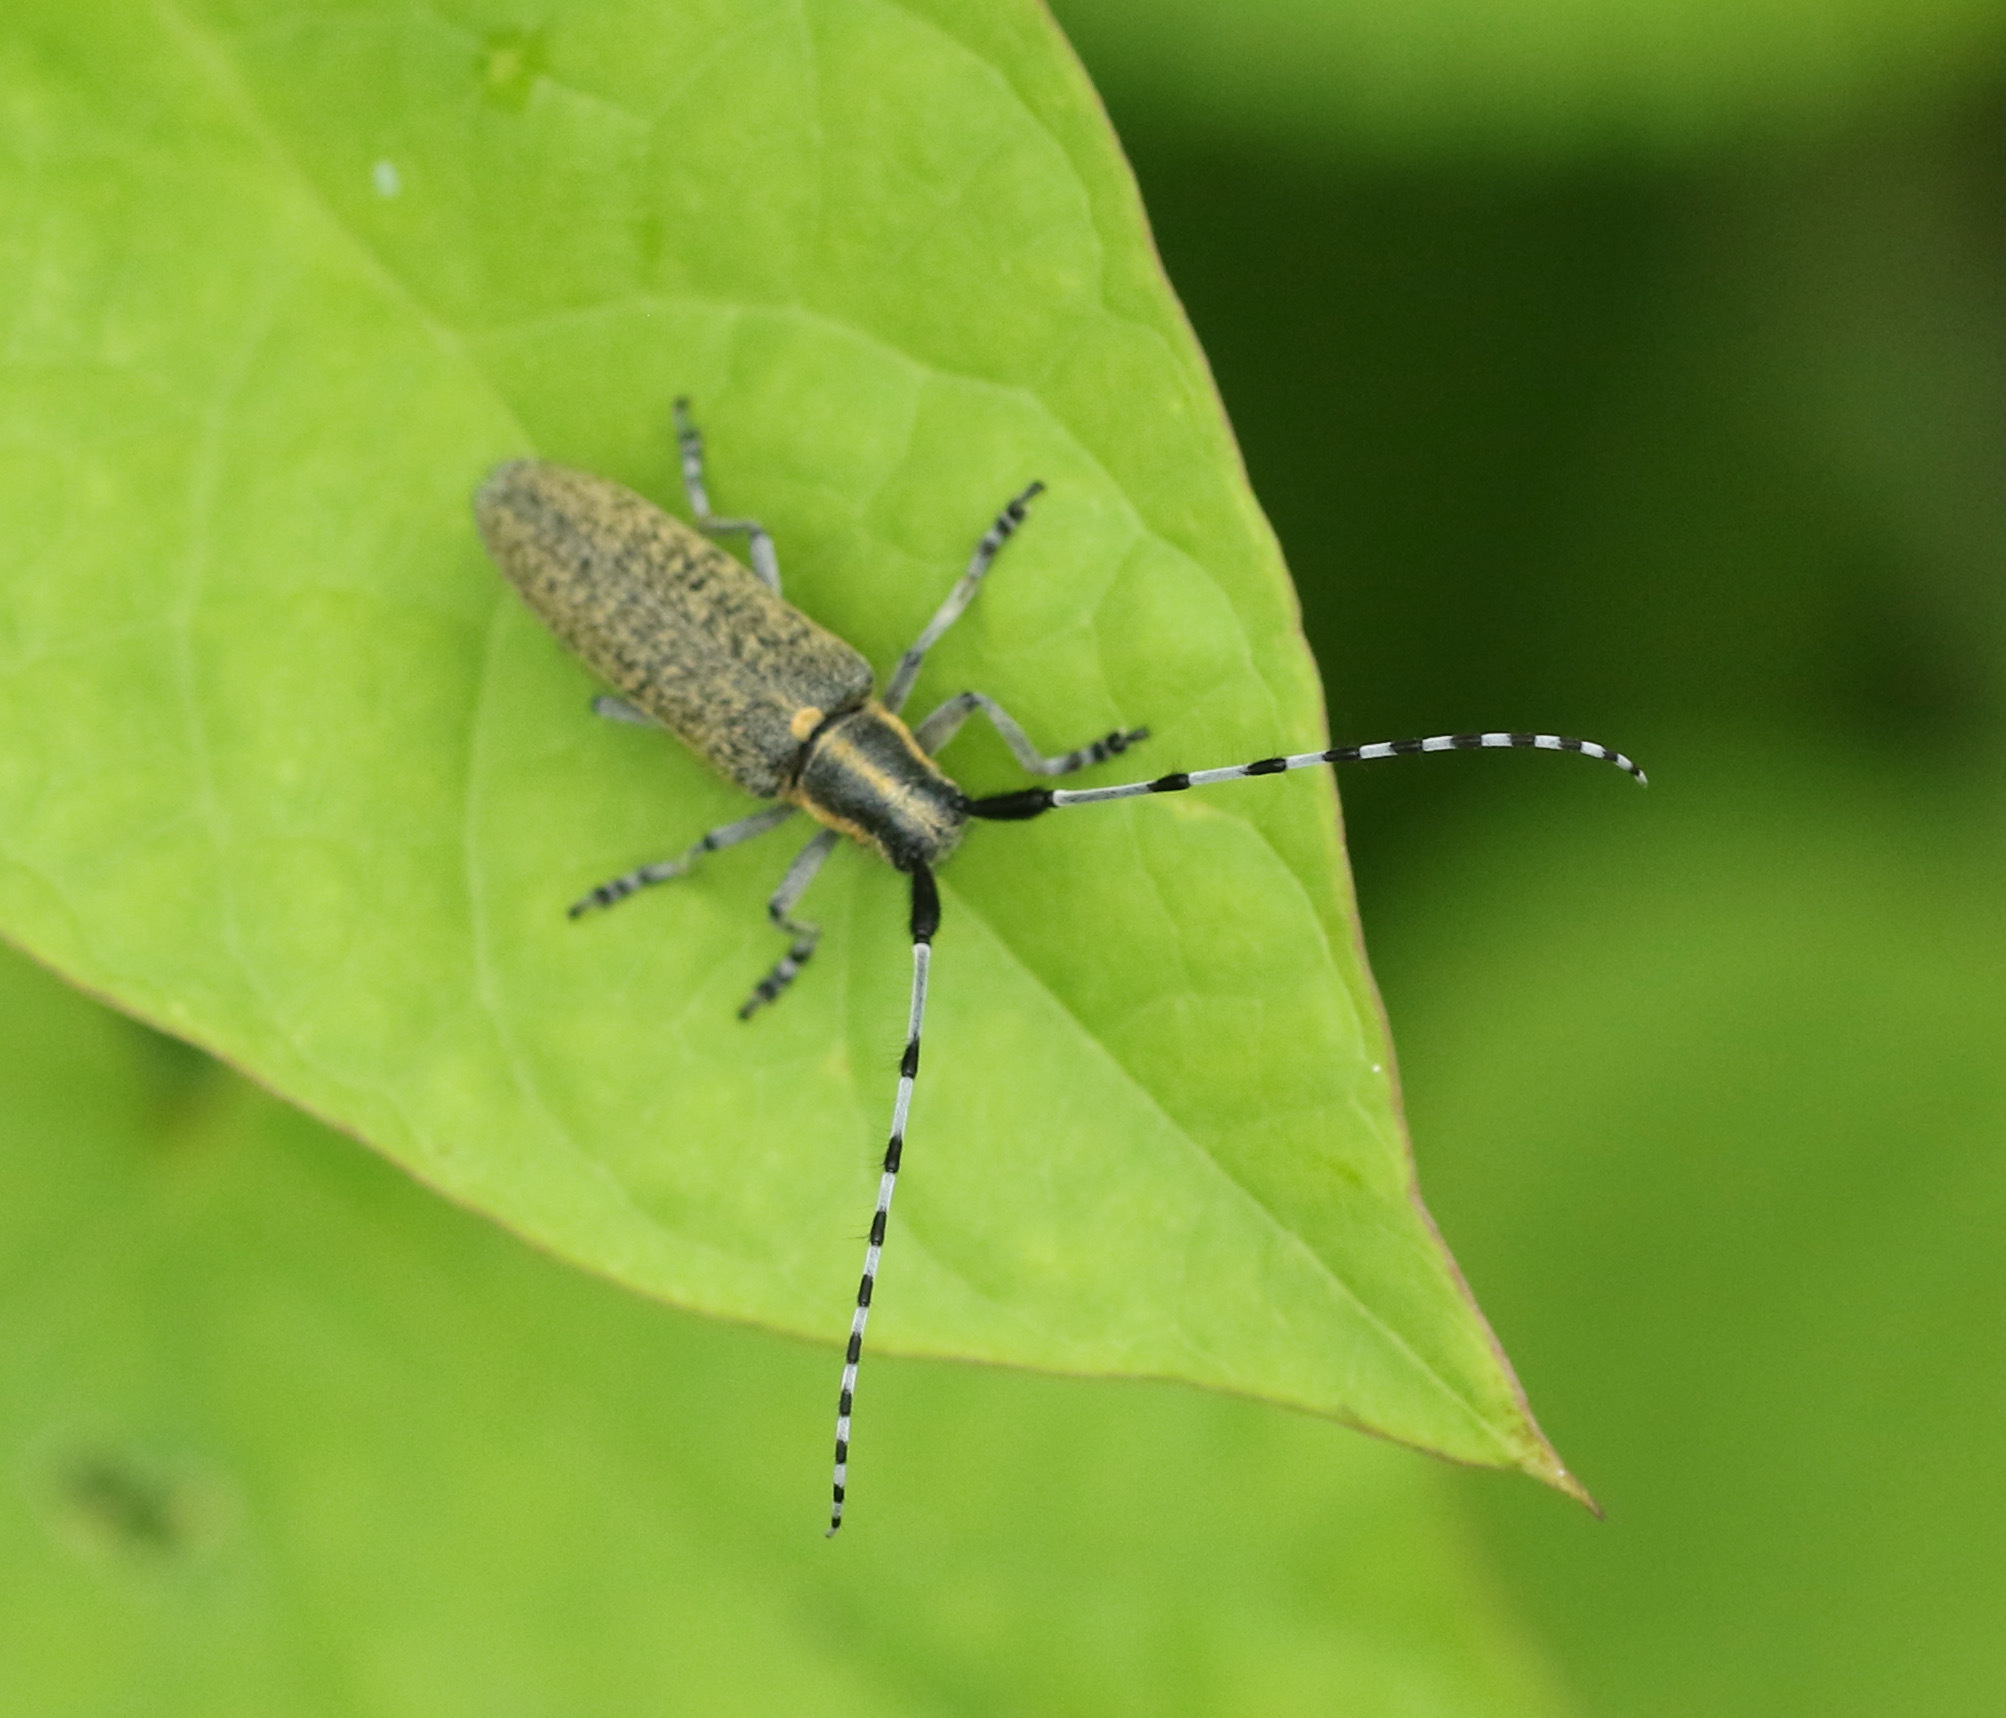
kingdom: Animalia
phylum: Arthropoda
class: Insecta
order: Coleoptera
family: Cerambycidae
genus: Agapanthia
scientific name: Agapanthia villosoviridescens
